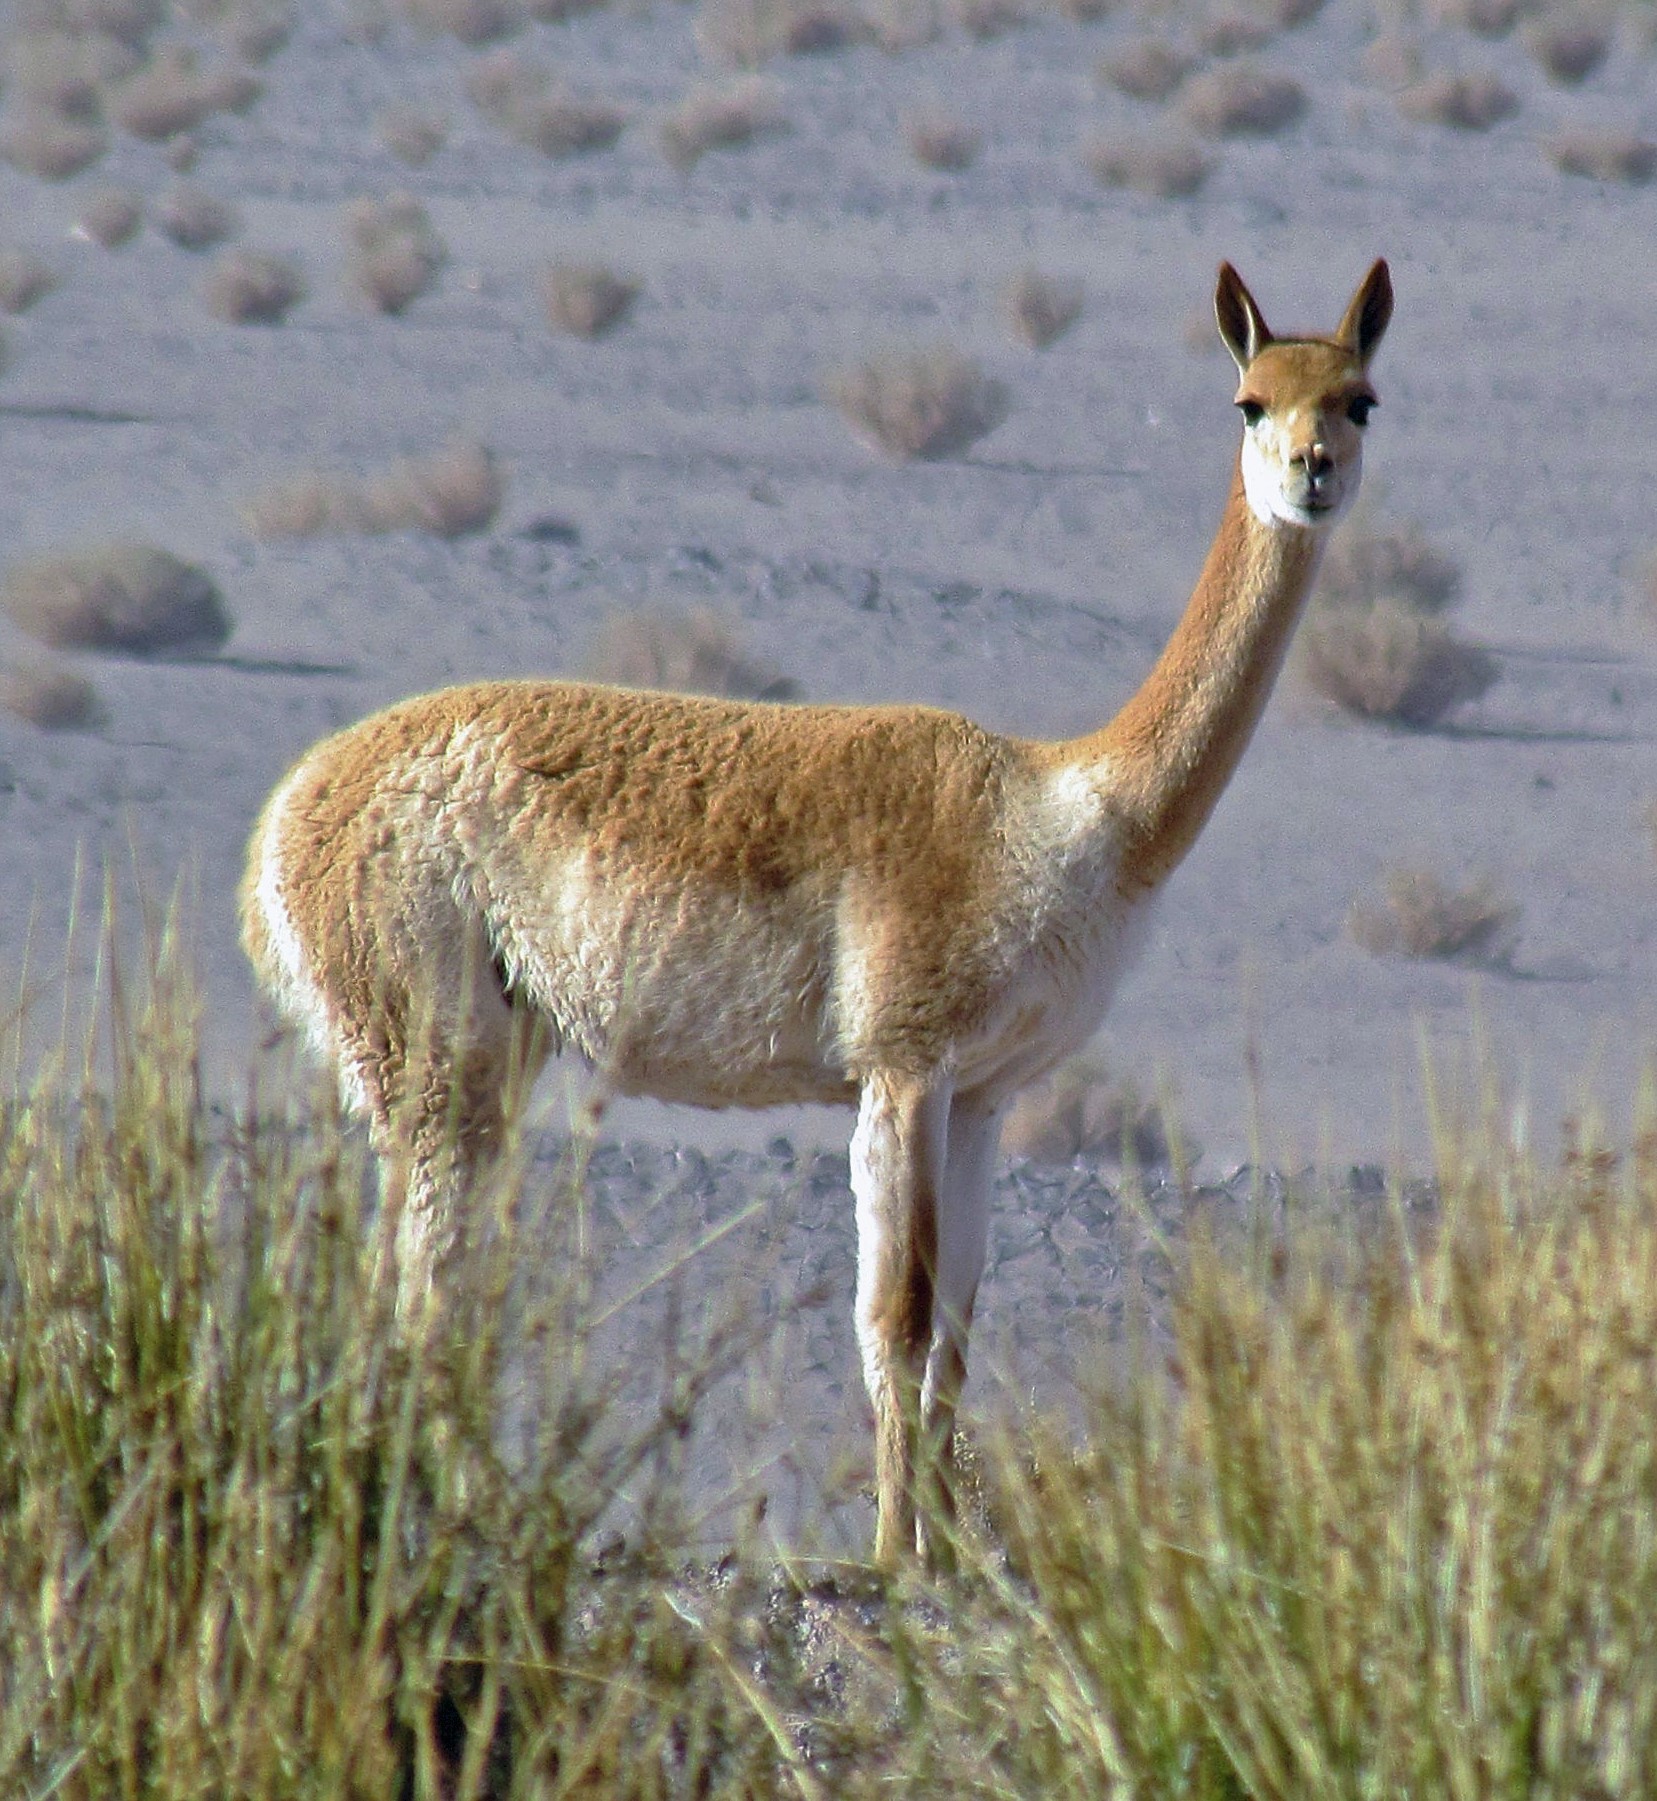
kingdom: Animalia
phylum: Chordata
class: Mammalia
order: Artiodactyla
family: Camelidae
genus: Vicugna
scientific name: Vicugna vicugna
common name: Vicugna
